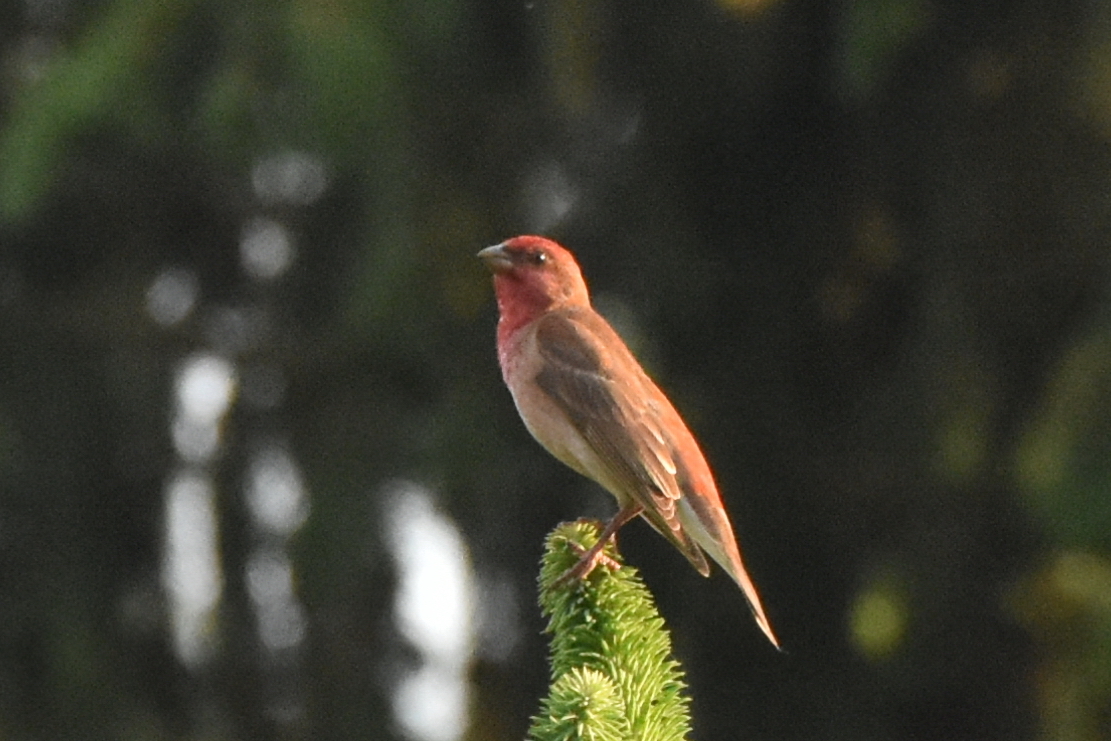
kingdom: Animalia
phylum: Chordata
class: Aves
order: Passeriformes
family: Fringillidae
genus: Carpodacus
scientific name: Carpodacus erythrinus
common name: Common rosefinch
